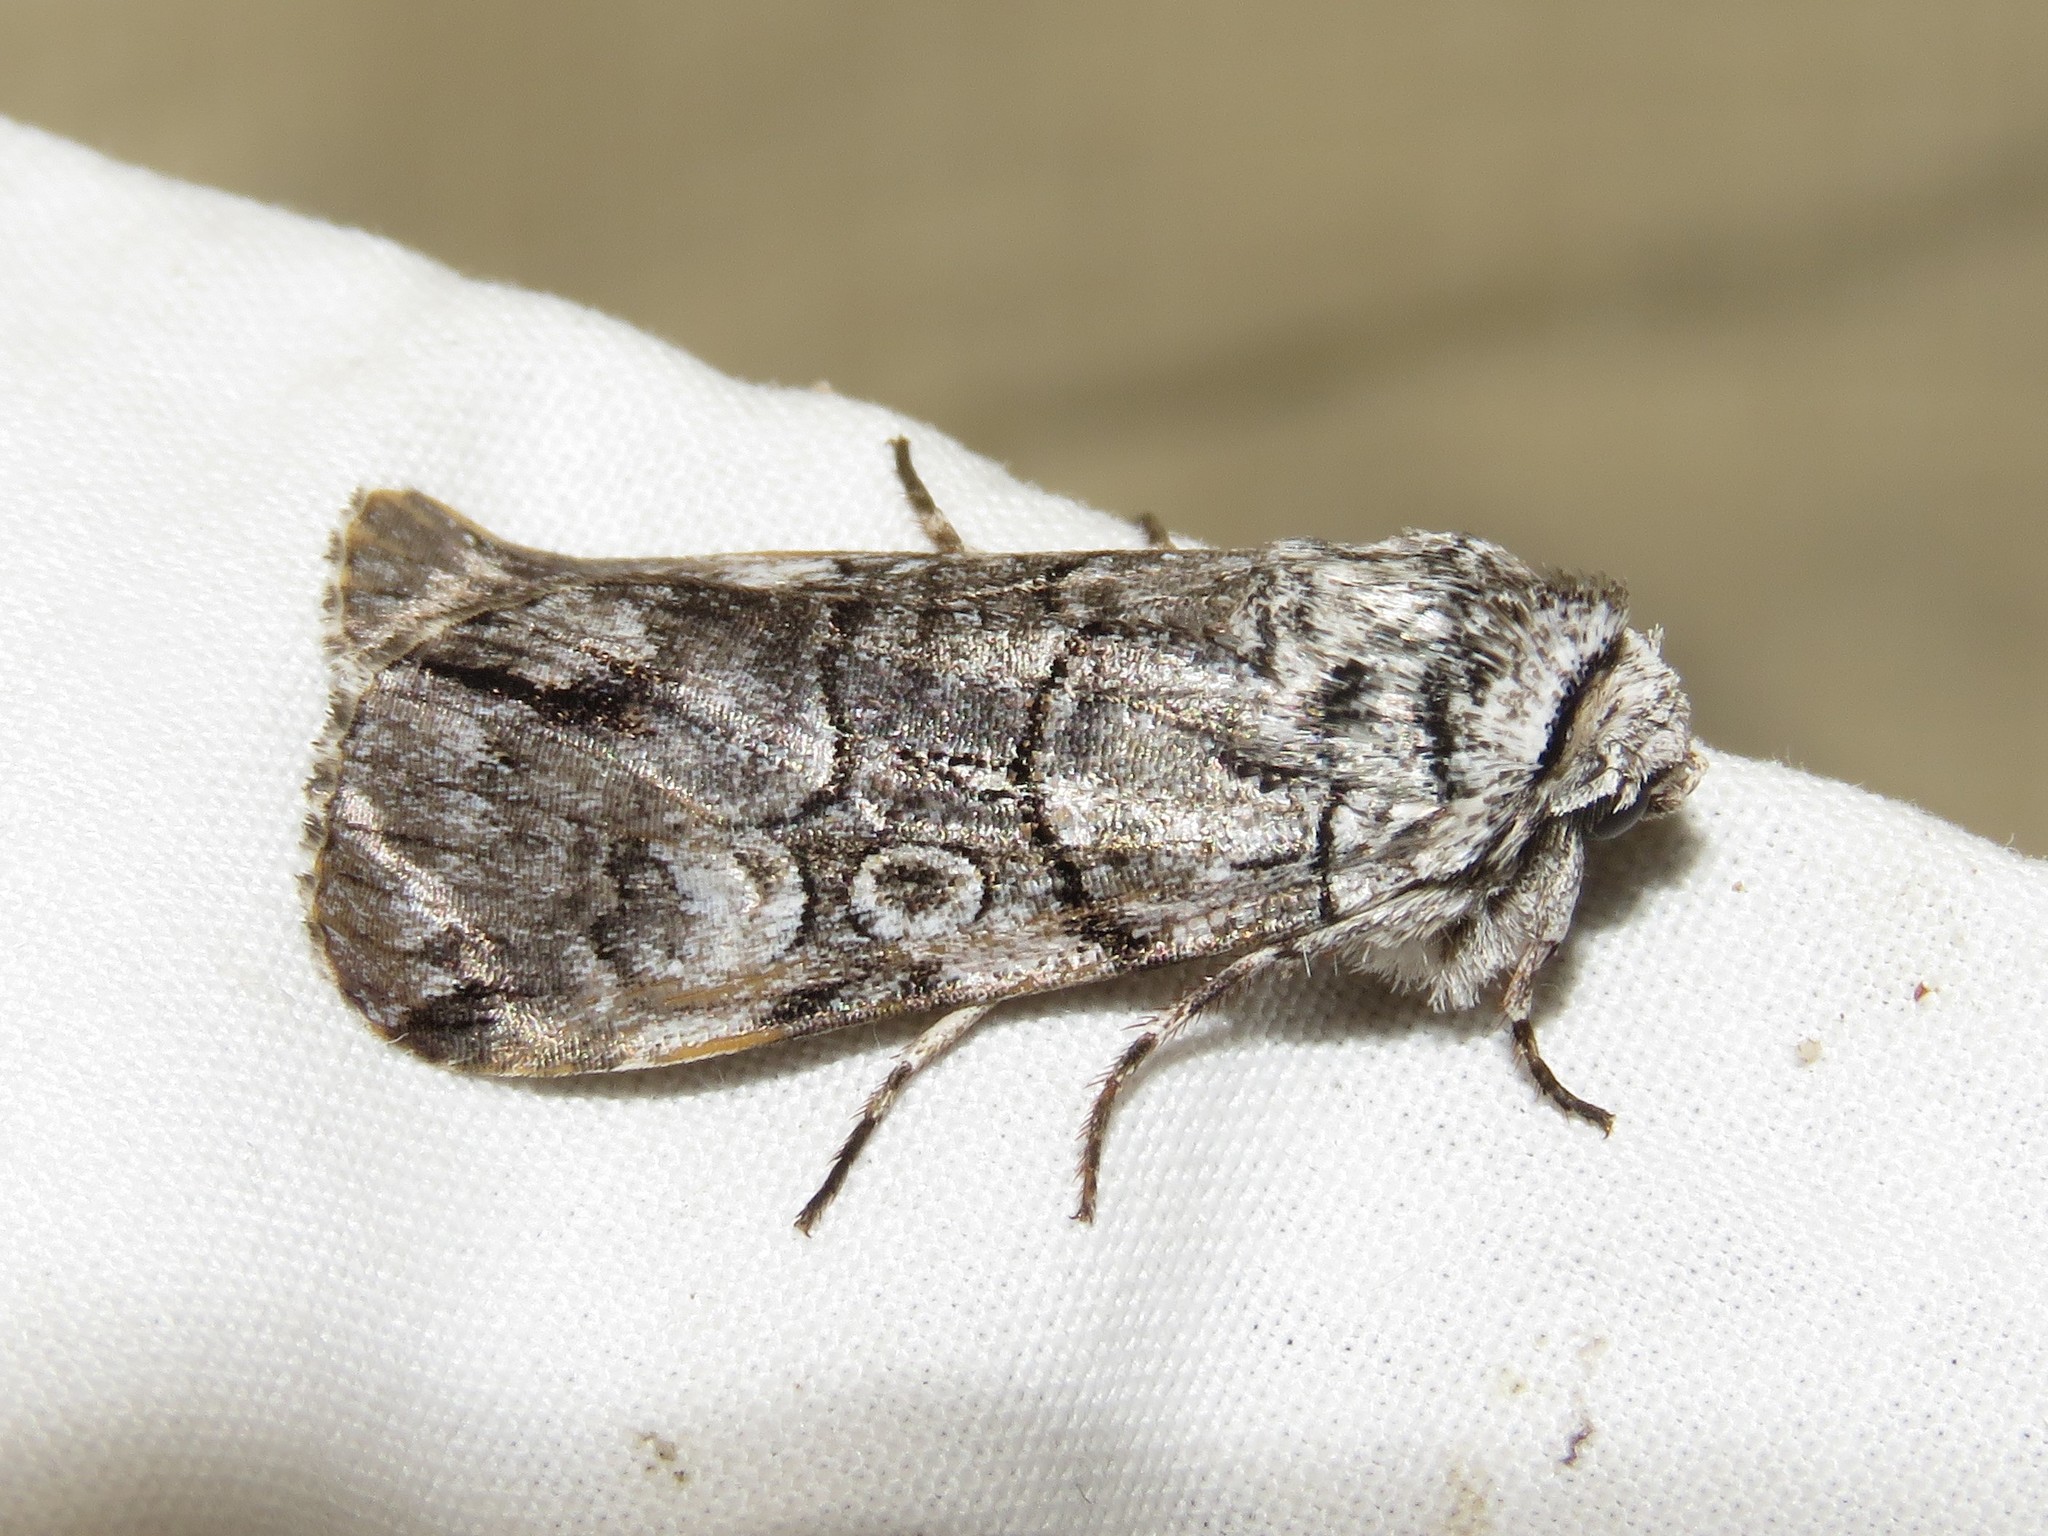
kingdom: Animalia
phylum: Arthropoda
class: Insecta
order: Lepidoptera
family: Noctuidae
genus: Sympistis
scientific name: Sympistis chionanthi
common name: Fringe-tree sallow
